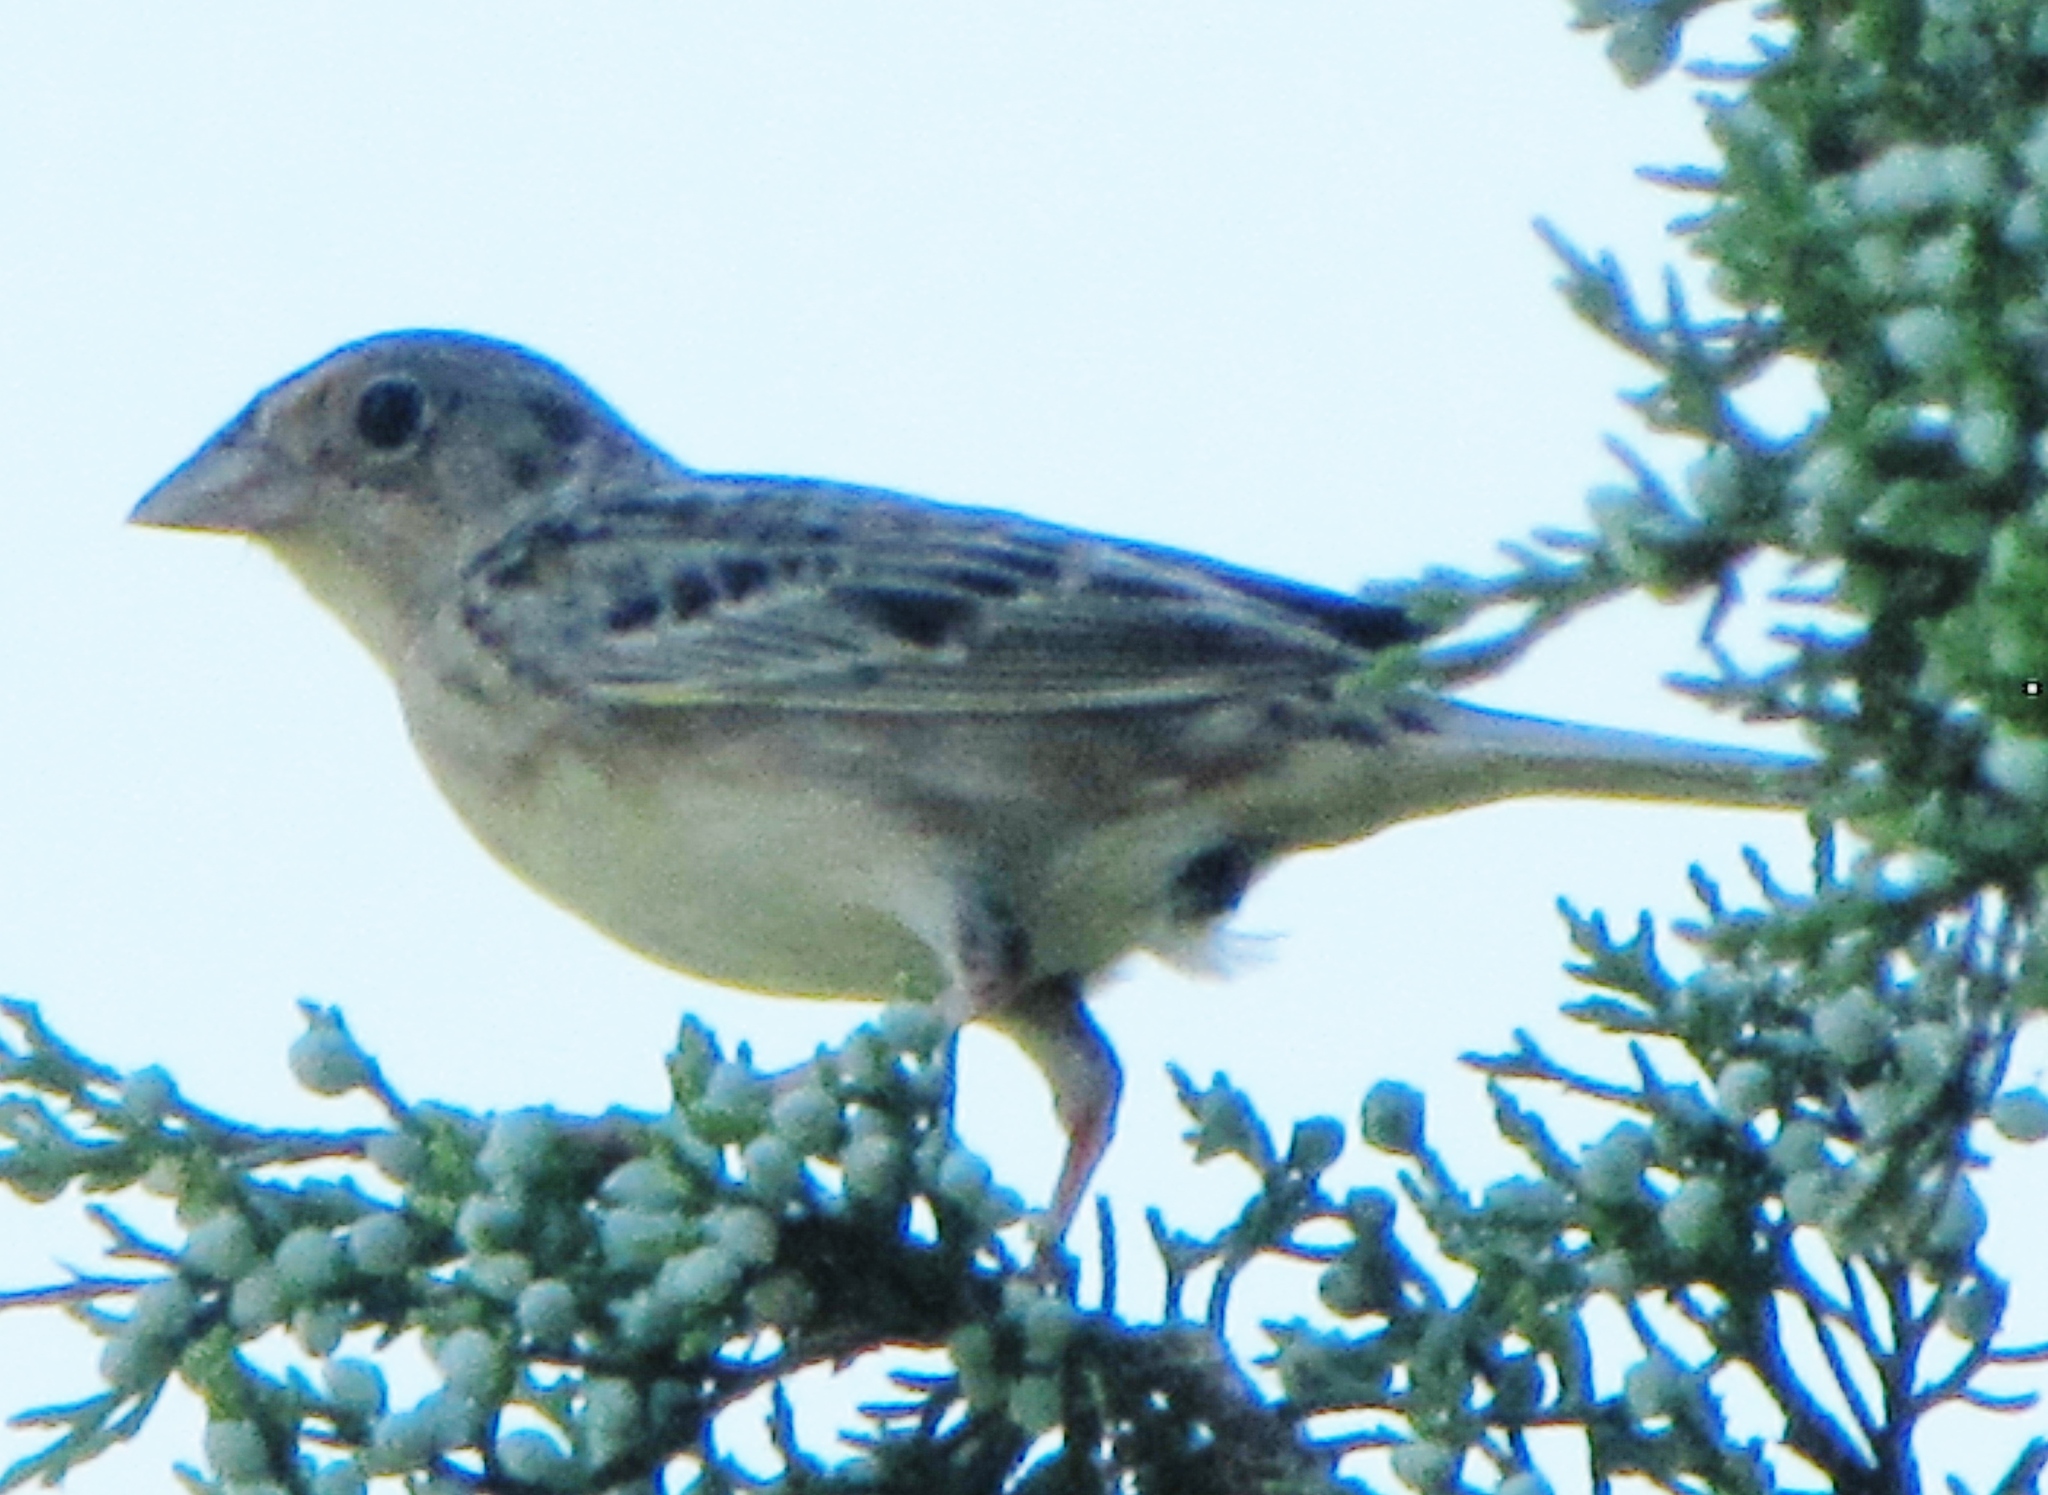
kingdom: Animalia
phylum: Chordata
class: Aves
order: Passeriformes
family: Passerellidae
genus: Ammodramus
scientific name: Ammodramus savannarum
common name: Grasshopper sparrow
